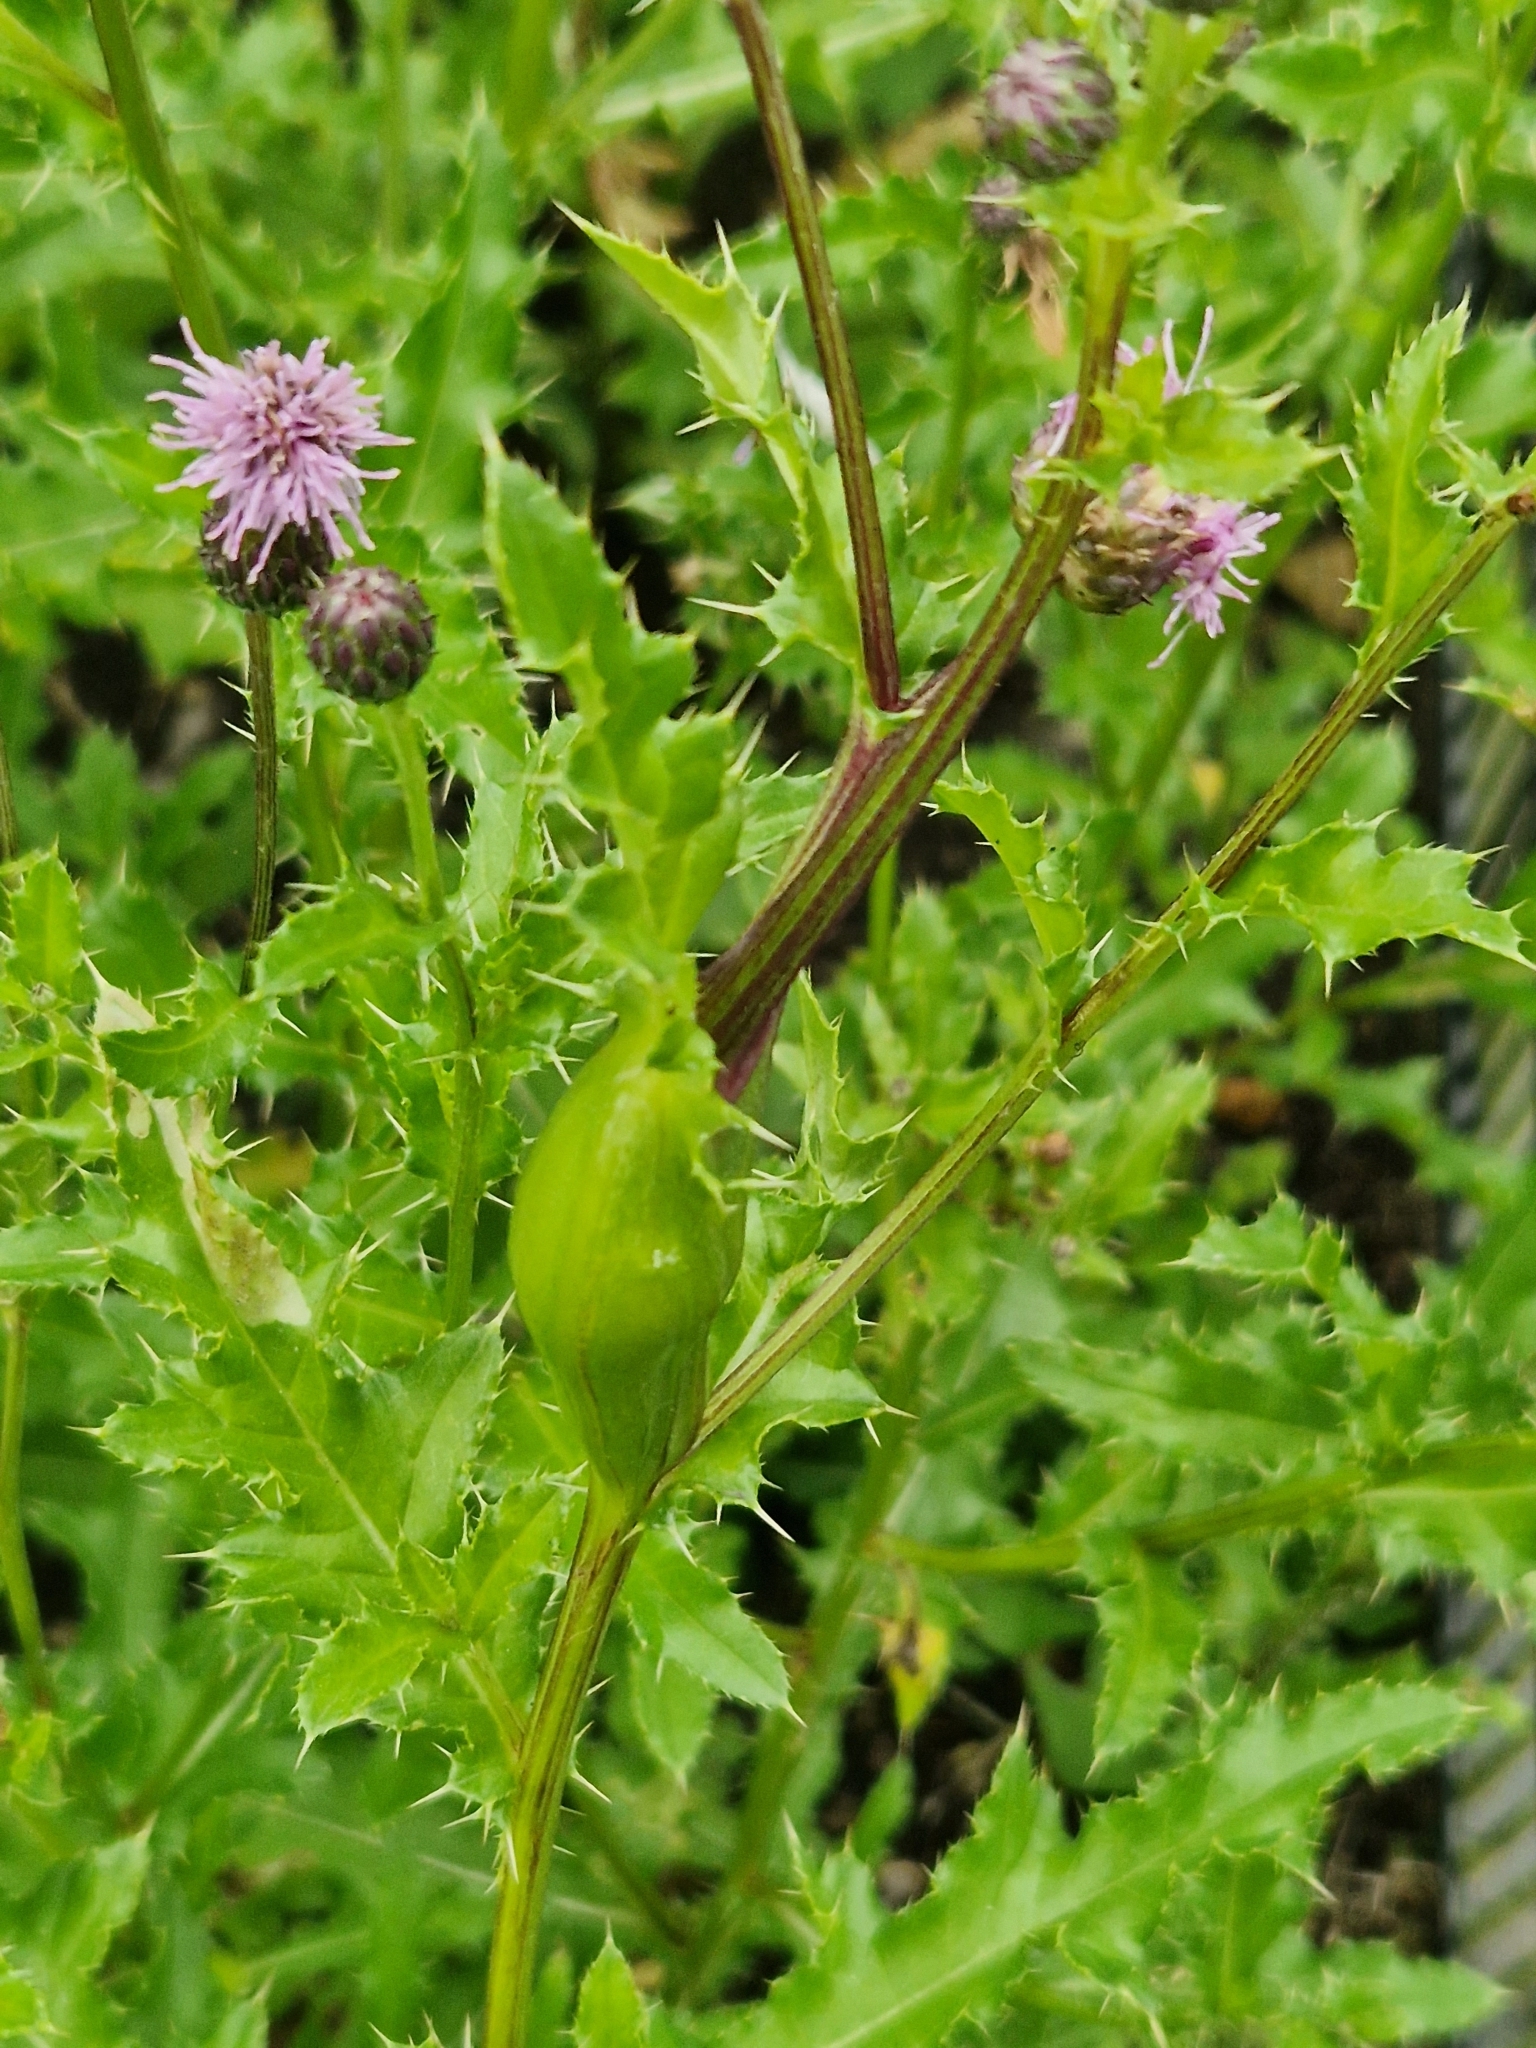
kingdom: Animalia
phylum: Arthropoda
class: Insecta
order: Diptera
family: Tephritidae
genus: Urophora
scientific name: Urophora cardui
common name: Fruit fly
